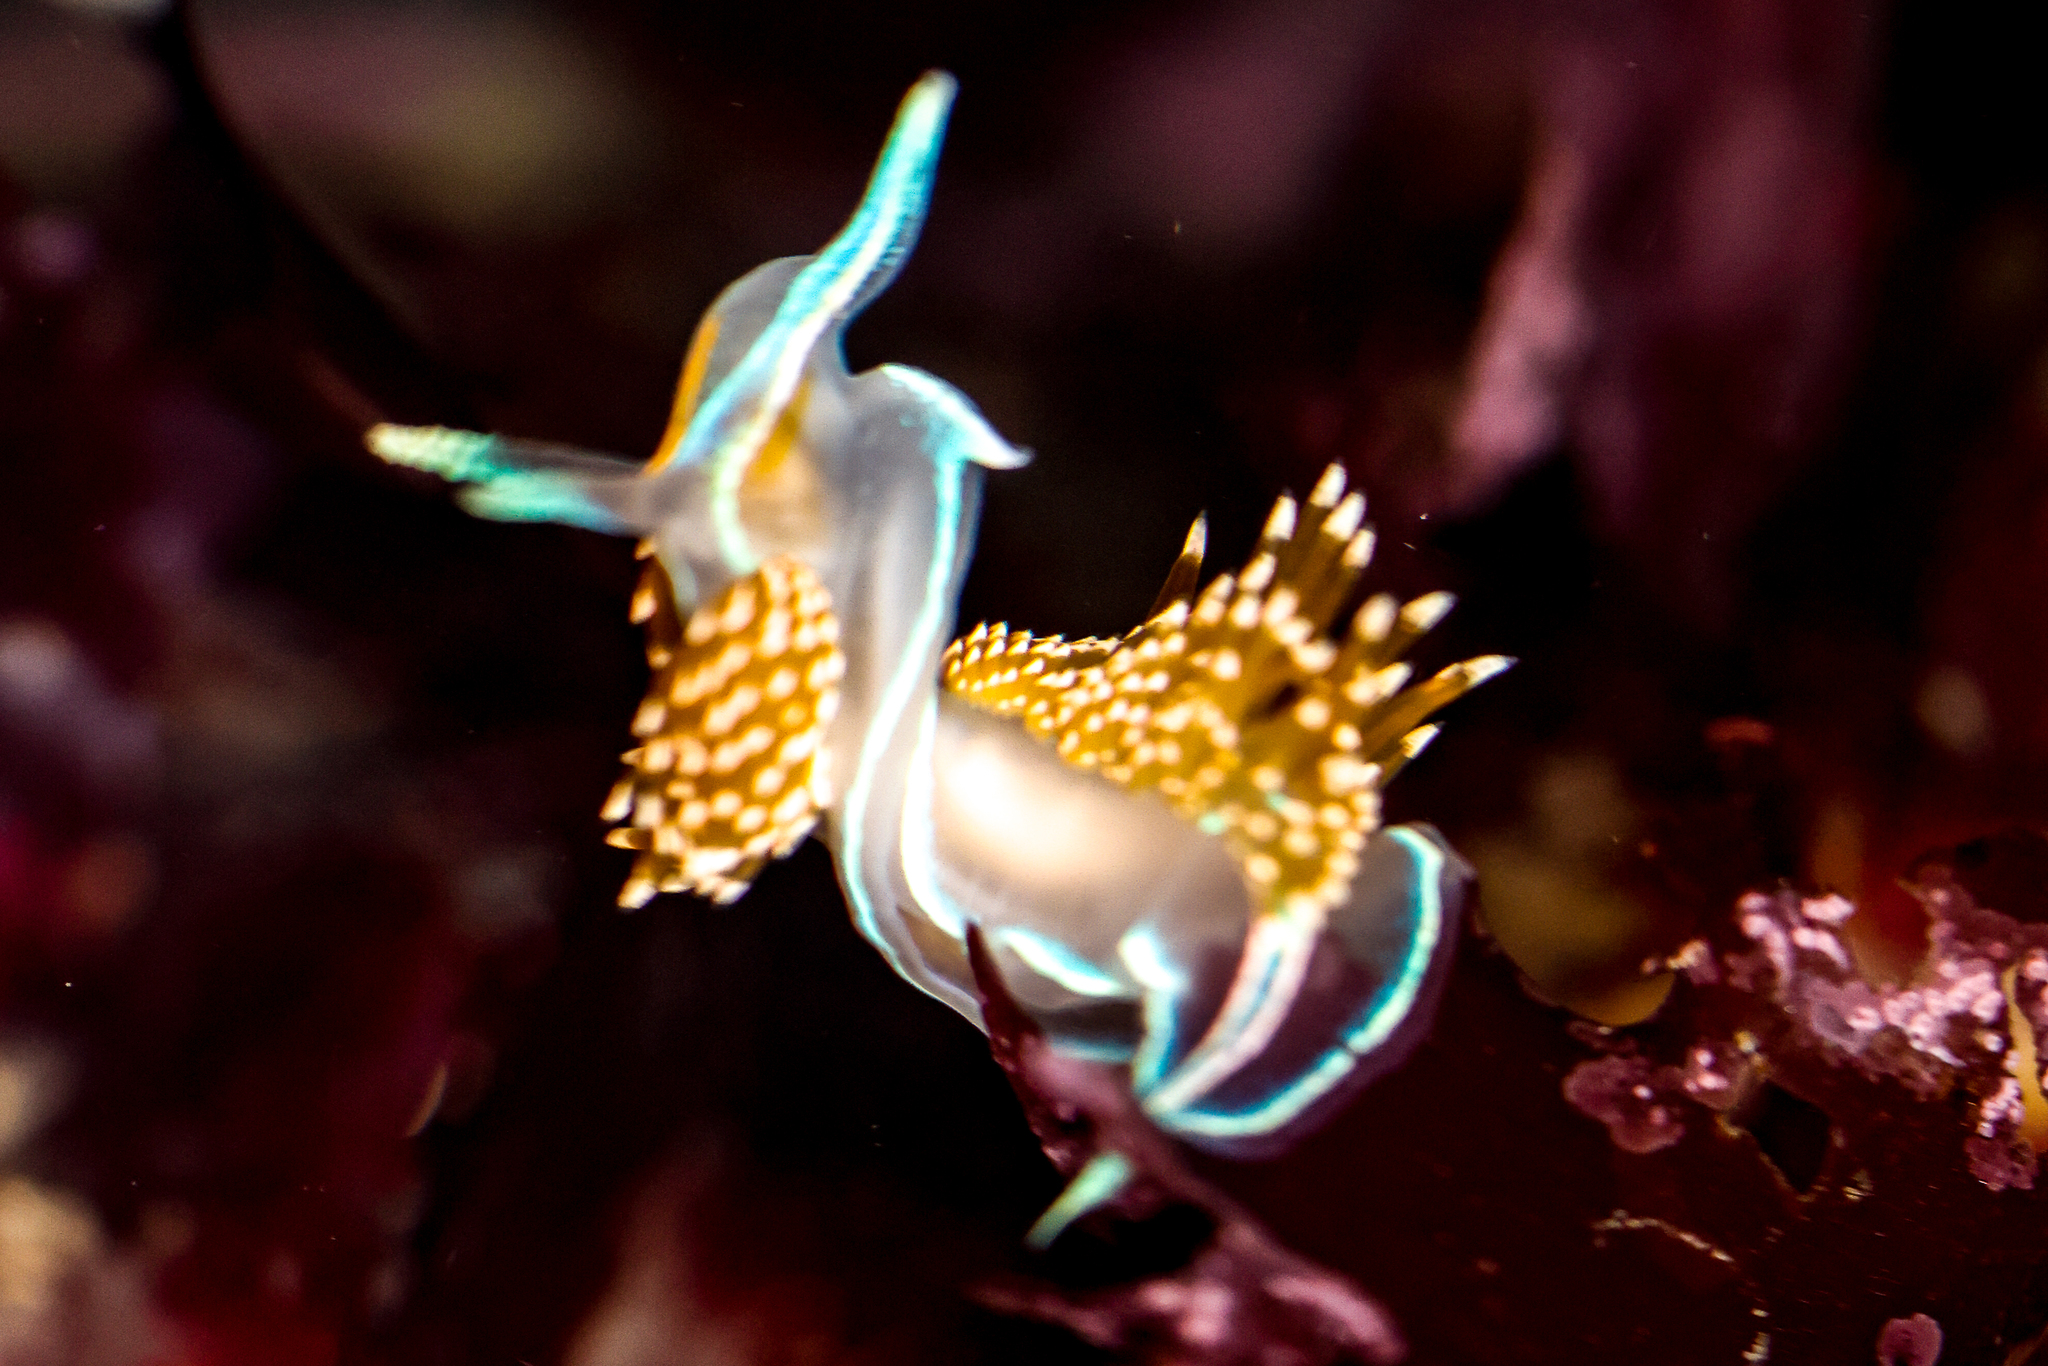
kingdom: Animalia
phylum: Mollusca
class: Gastropoda
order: Nudibranchia
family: Myrrhinidae
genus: Hermissenda
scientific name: Hermissenda opalescens
